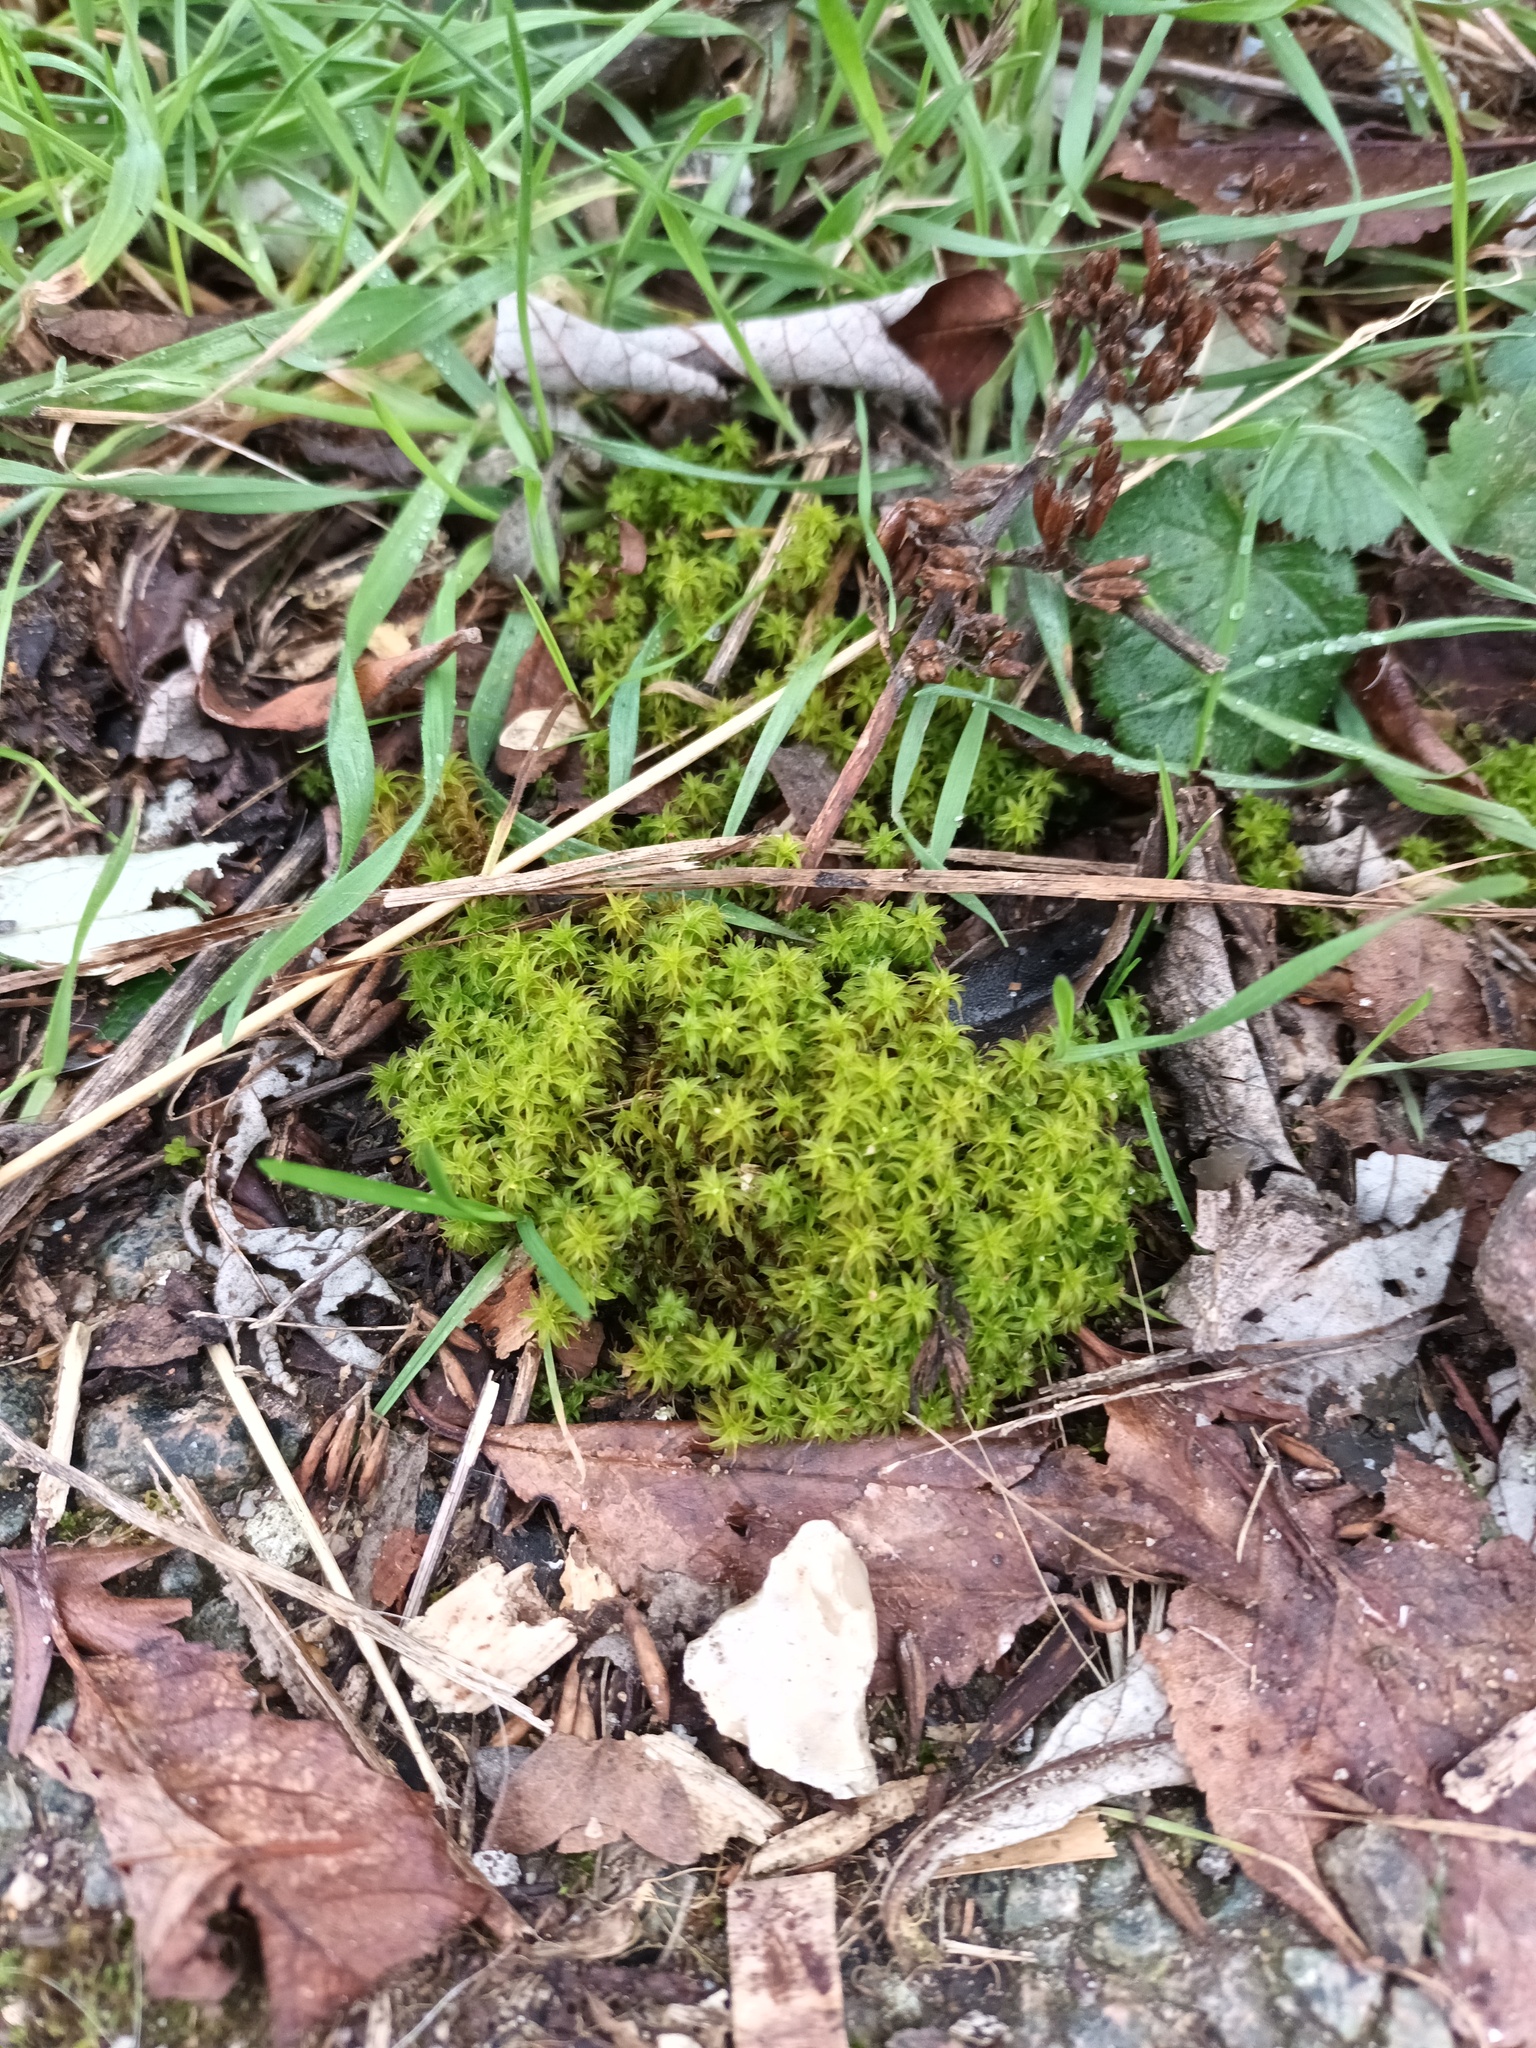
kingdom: Plantae
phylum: Bryophyta
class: Bryopsida
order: Pottiales
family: Pottiaceae
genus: Syntrichia
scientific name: Syntrichia ruralis
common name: Sidewalk screw moss
